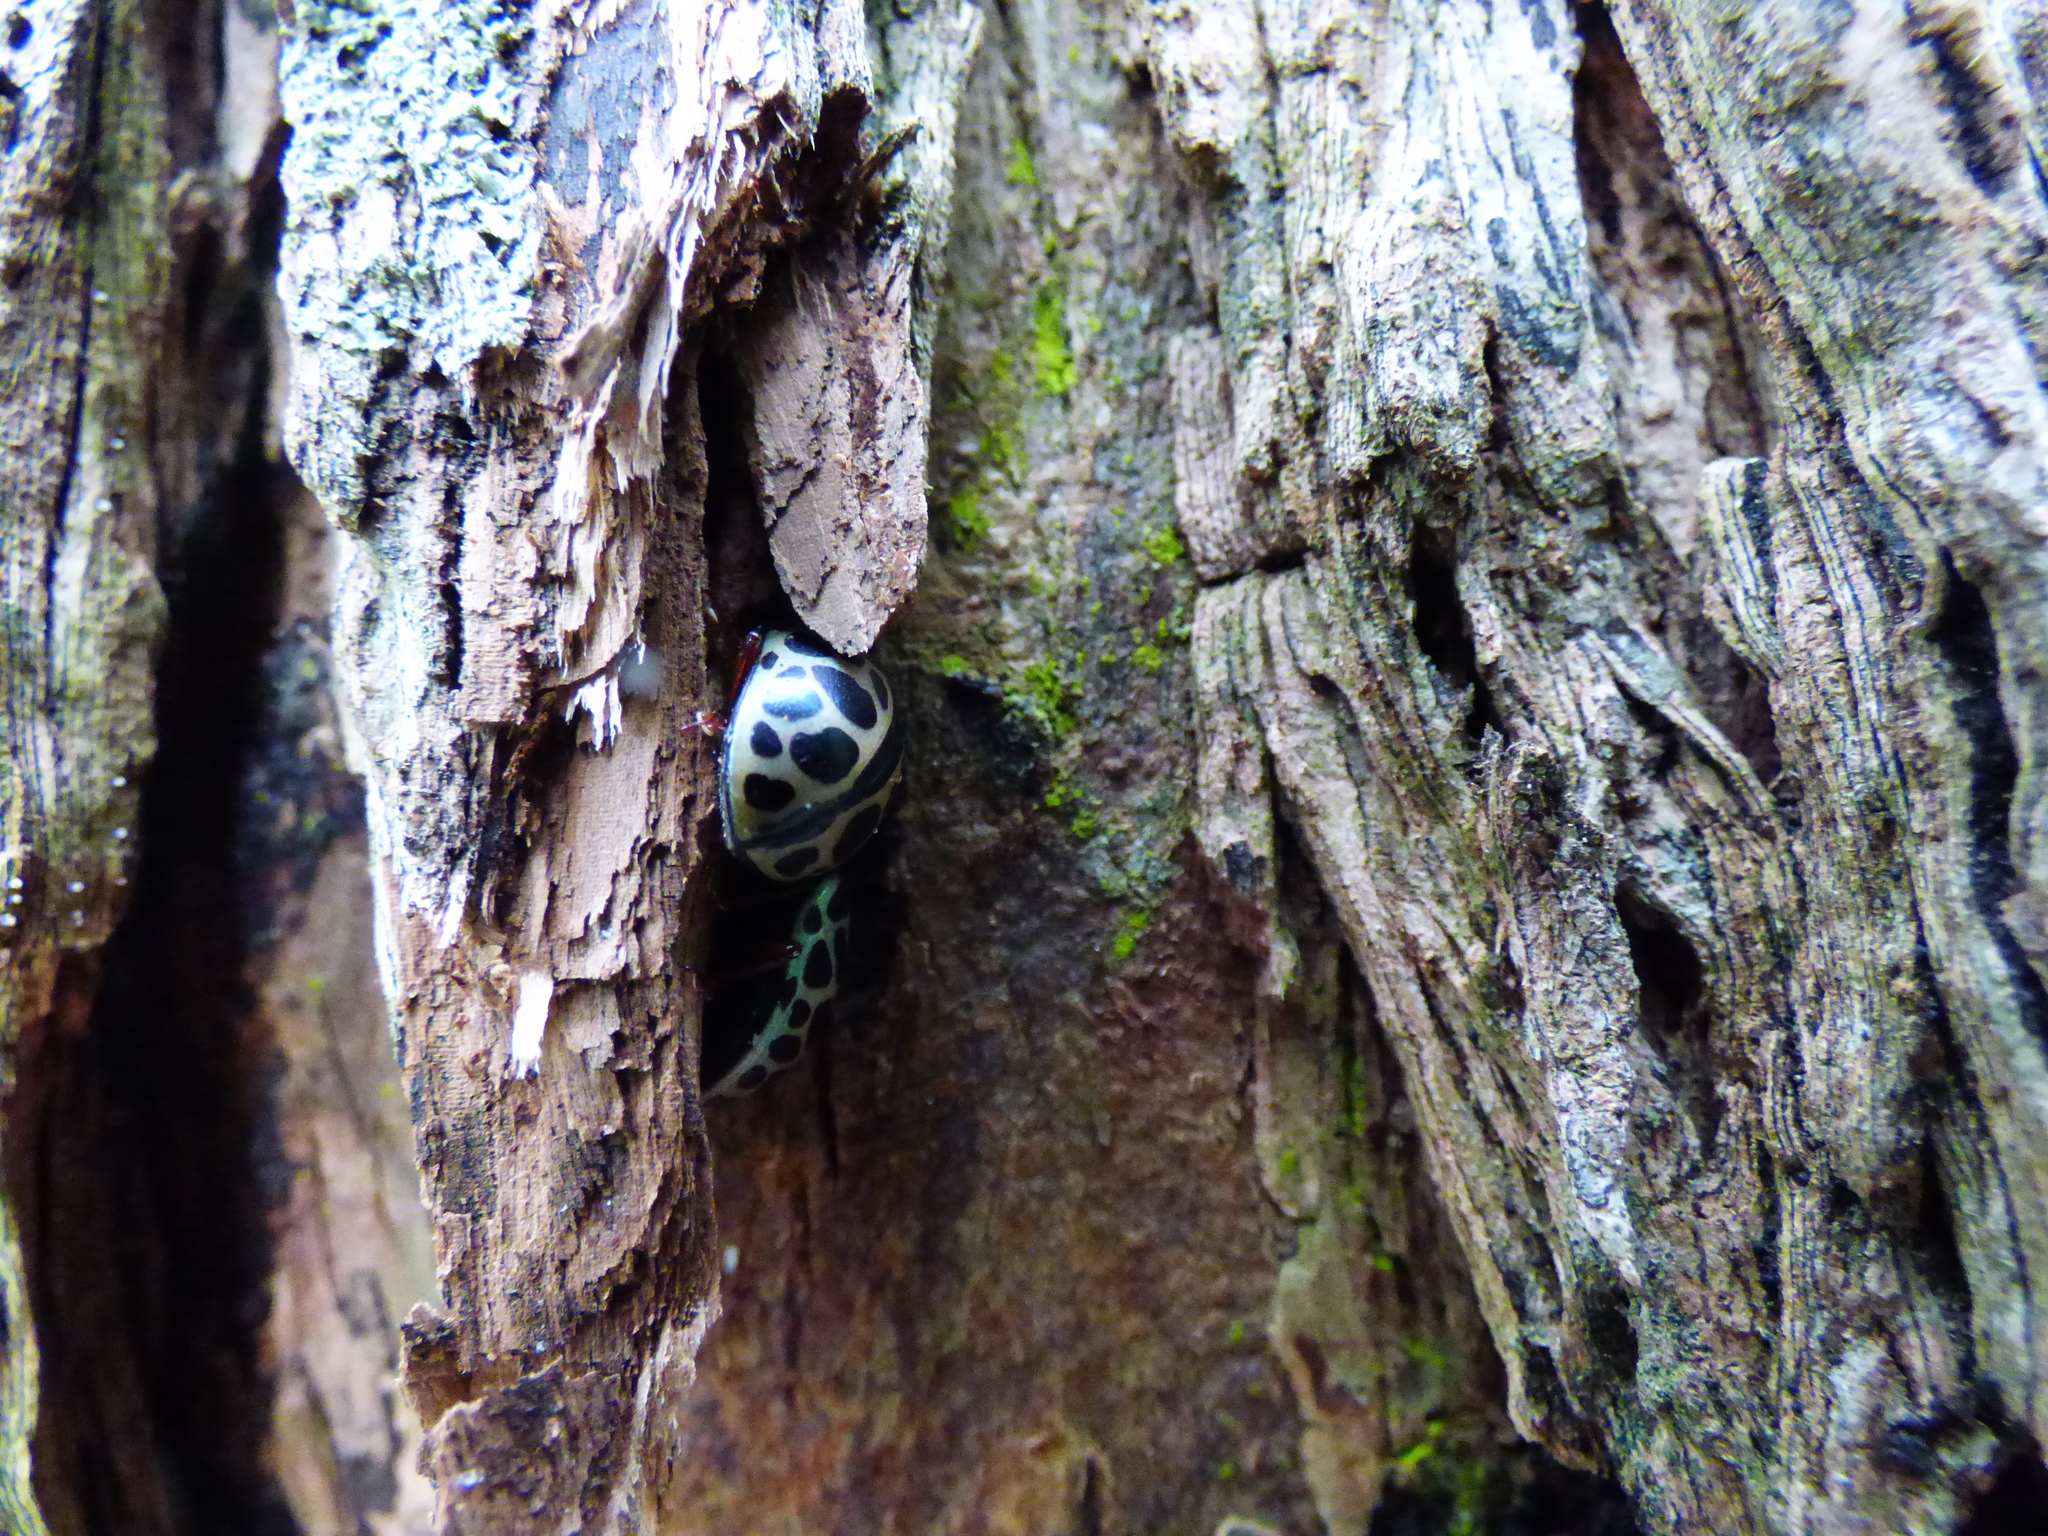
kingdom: Animalia
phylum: Arthropoda
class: Insecta
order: Coleoptera
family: Chrysomelidae
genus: Calligrapha
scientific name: Calligrapha polyspila
